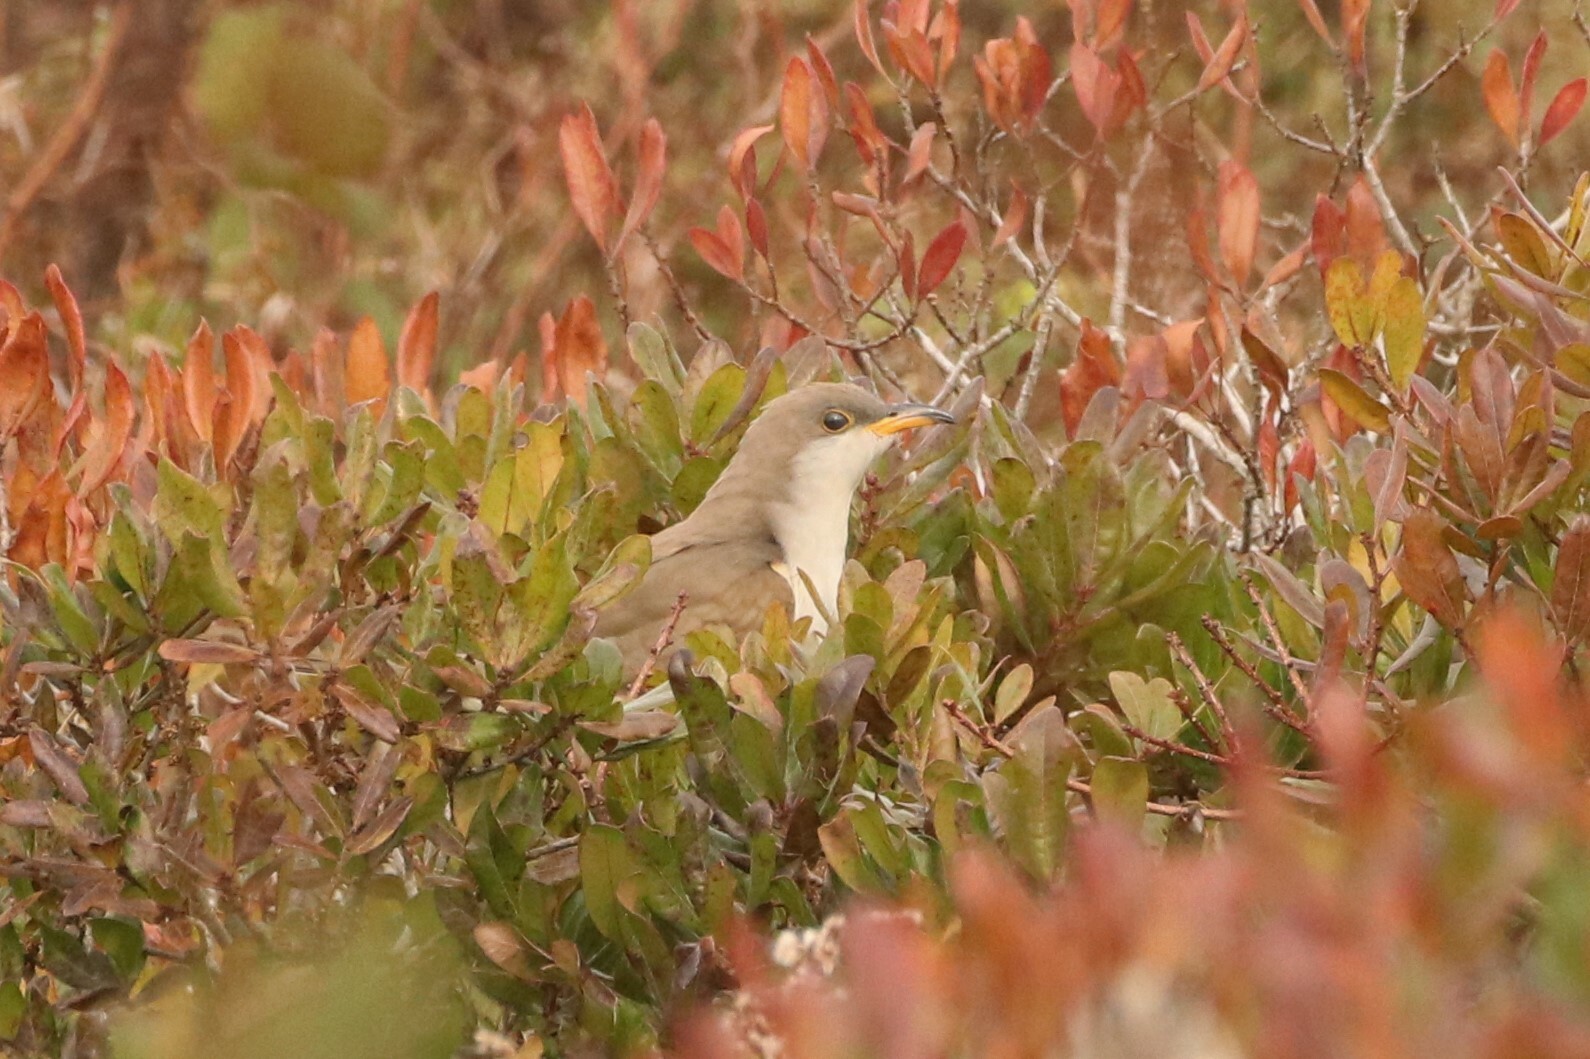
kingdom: Animalia
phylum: Chordata
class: Aves
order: Cuculiformes
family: Cuculidae
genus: Coccyzus
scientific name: Coccyzus americanus
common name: Yellow-billed cuckoo
